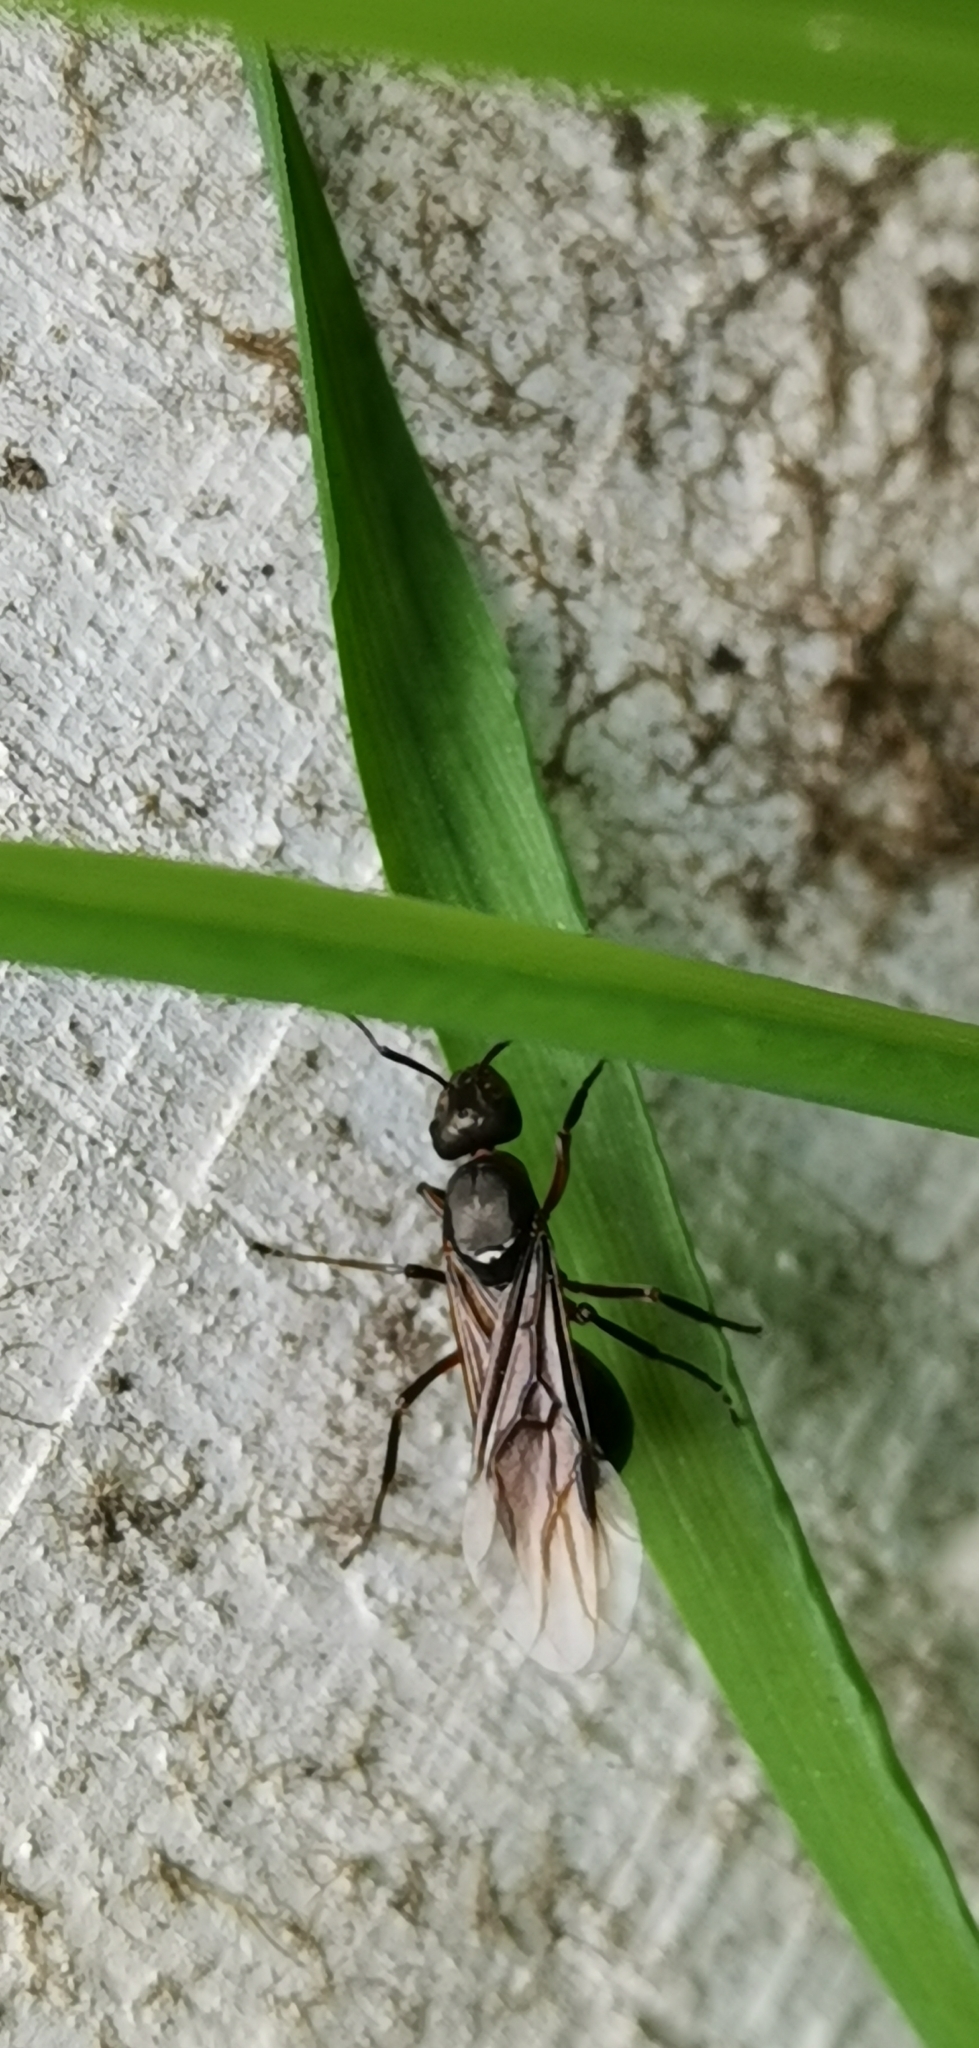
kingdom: Animalia
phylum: Arthropoda
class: Insecta
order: Hymenoptera
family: Formicidae
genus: Formica
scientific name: Formica
